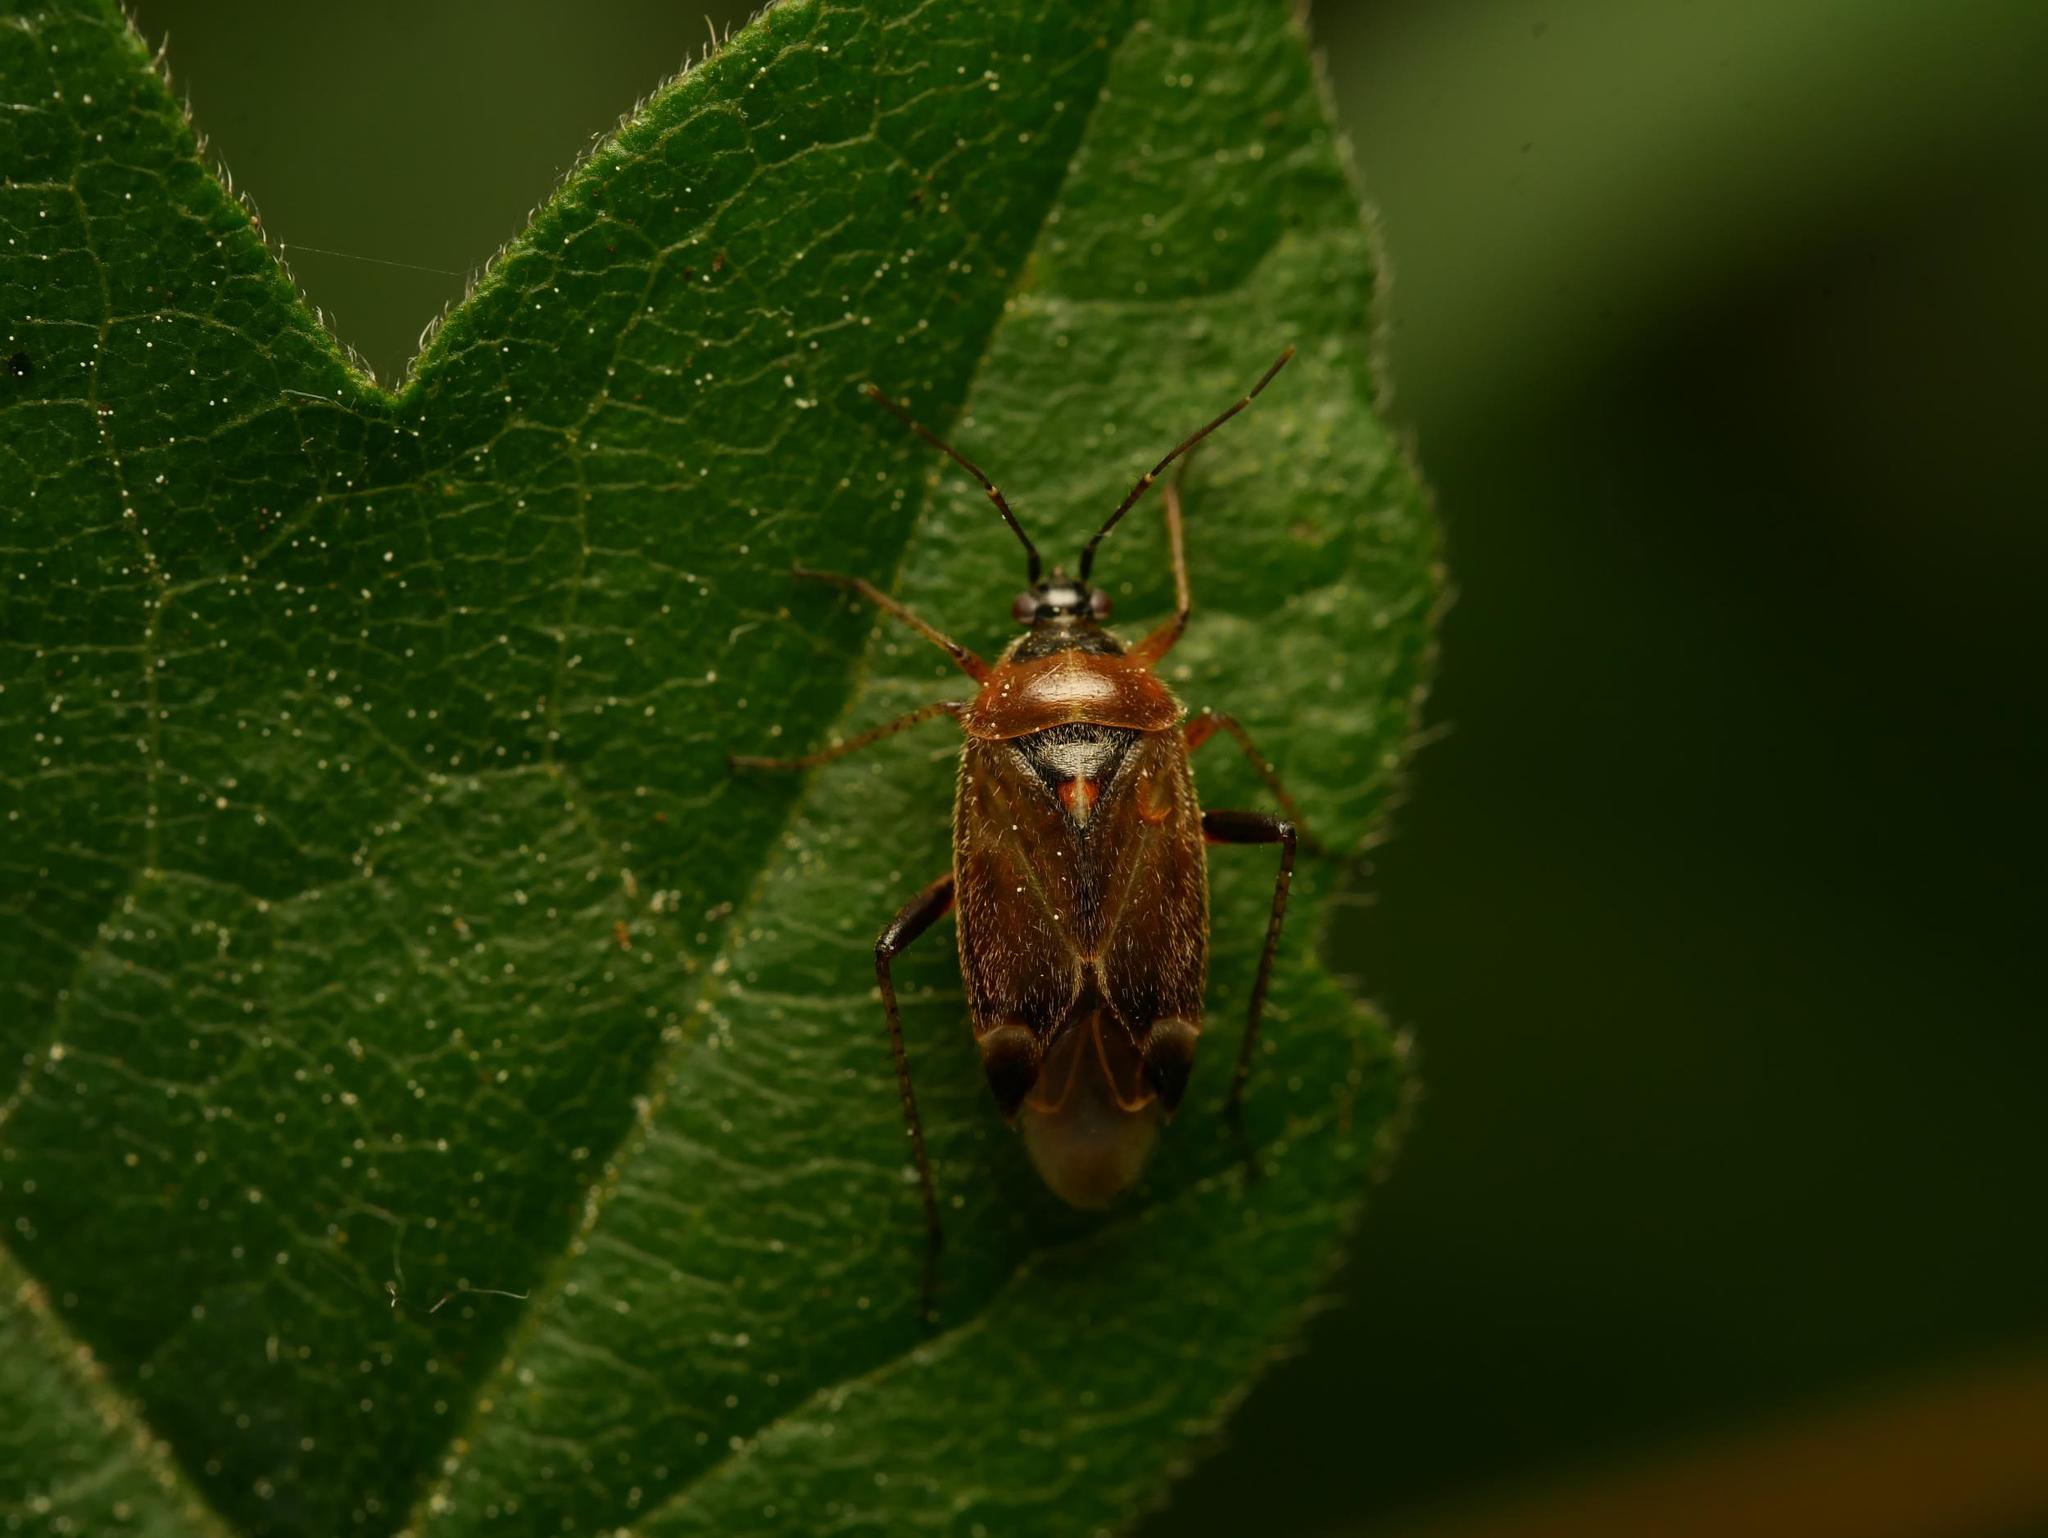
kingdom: Animalia
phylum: Arthropoda
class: Insecta
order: Hemiptera
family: Miridae
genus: Harpocera
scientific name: Harpocera thoracica
